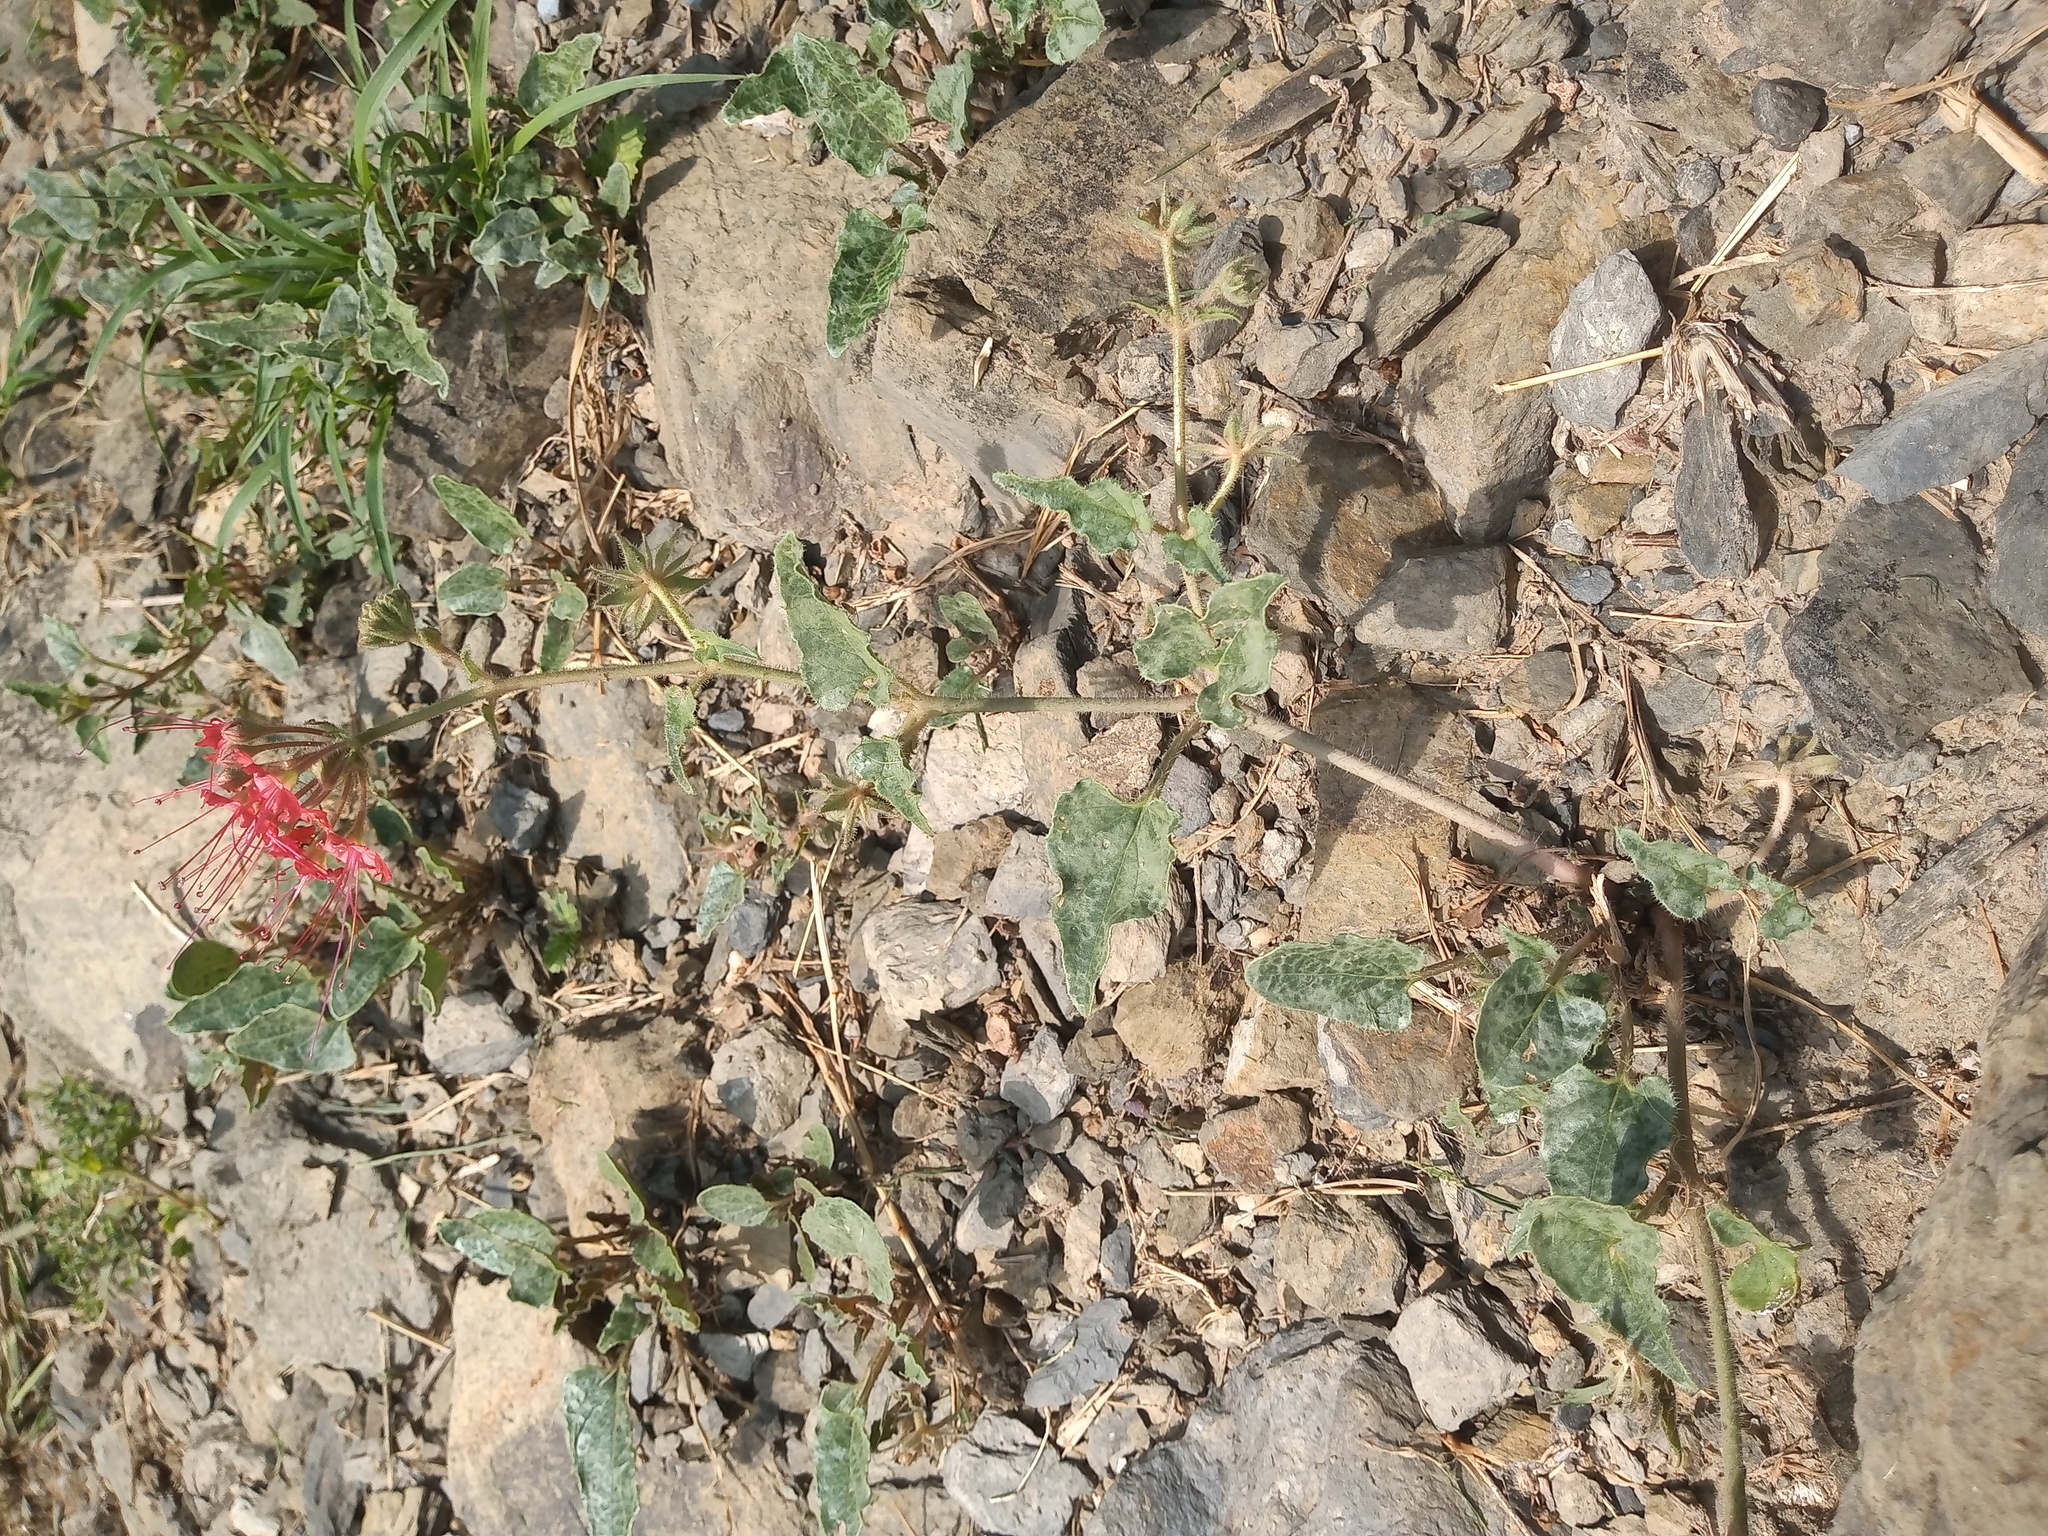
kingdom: Plantae
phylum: Tracheophyta
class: Magnoliopsida
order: Caryophyllales
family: Nyctaginaceae
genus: Nyctaginia
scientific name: Nyctaginia capitata
